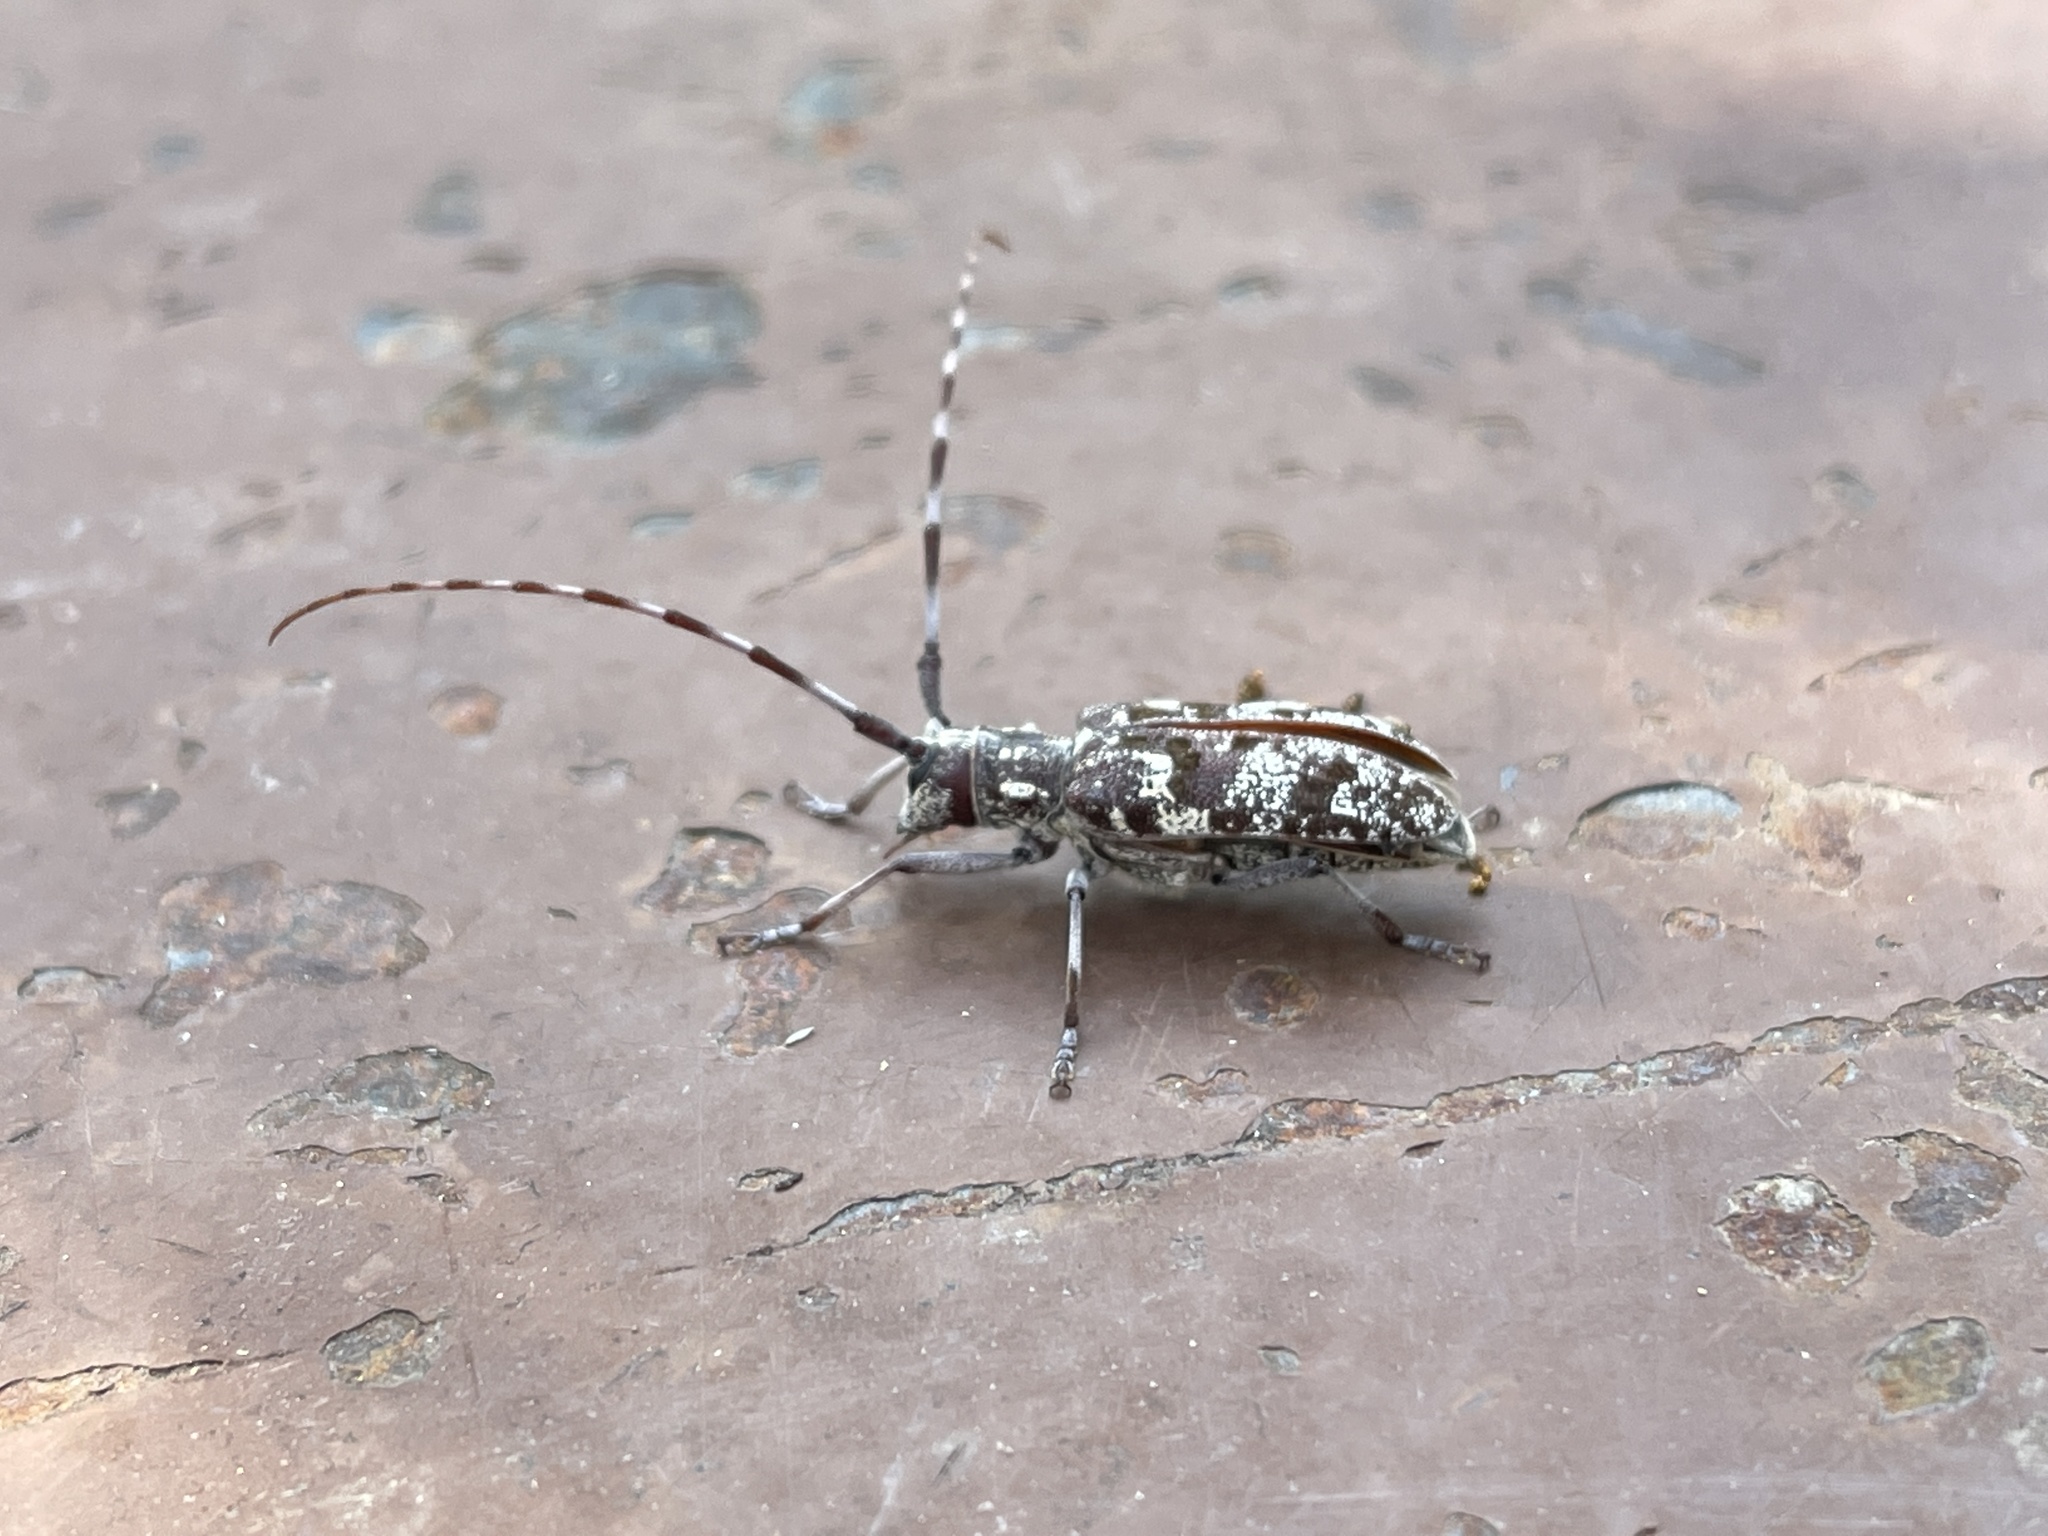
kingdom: Animalia
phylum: Arthropoda
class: Insecta
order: Coleoptera
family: Cerambycidae
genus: Monochamus
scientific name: Monochamus clamator
